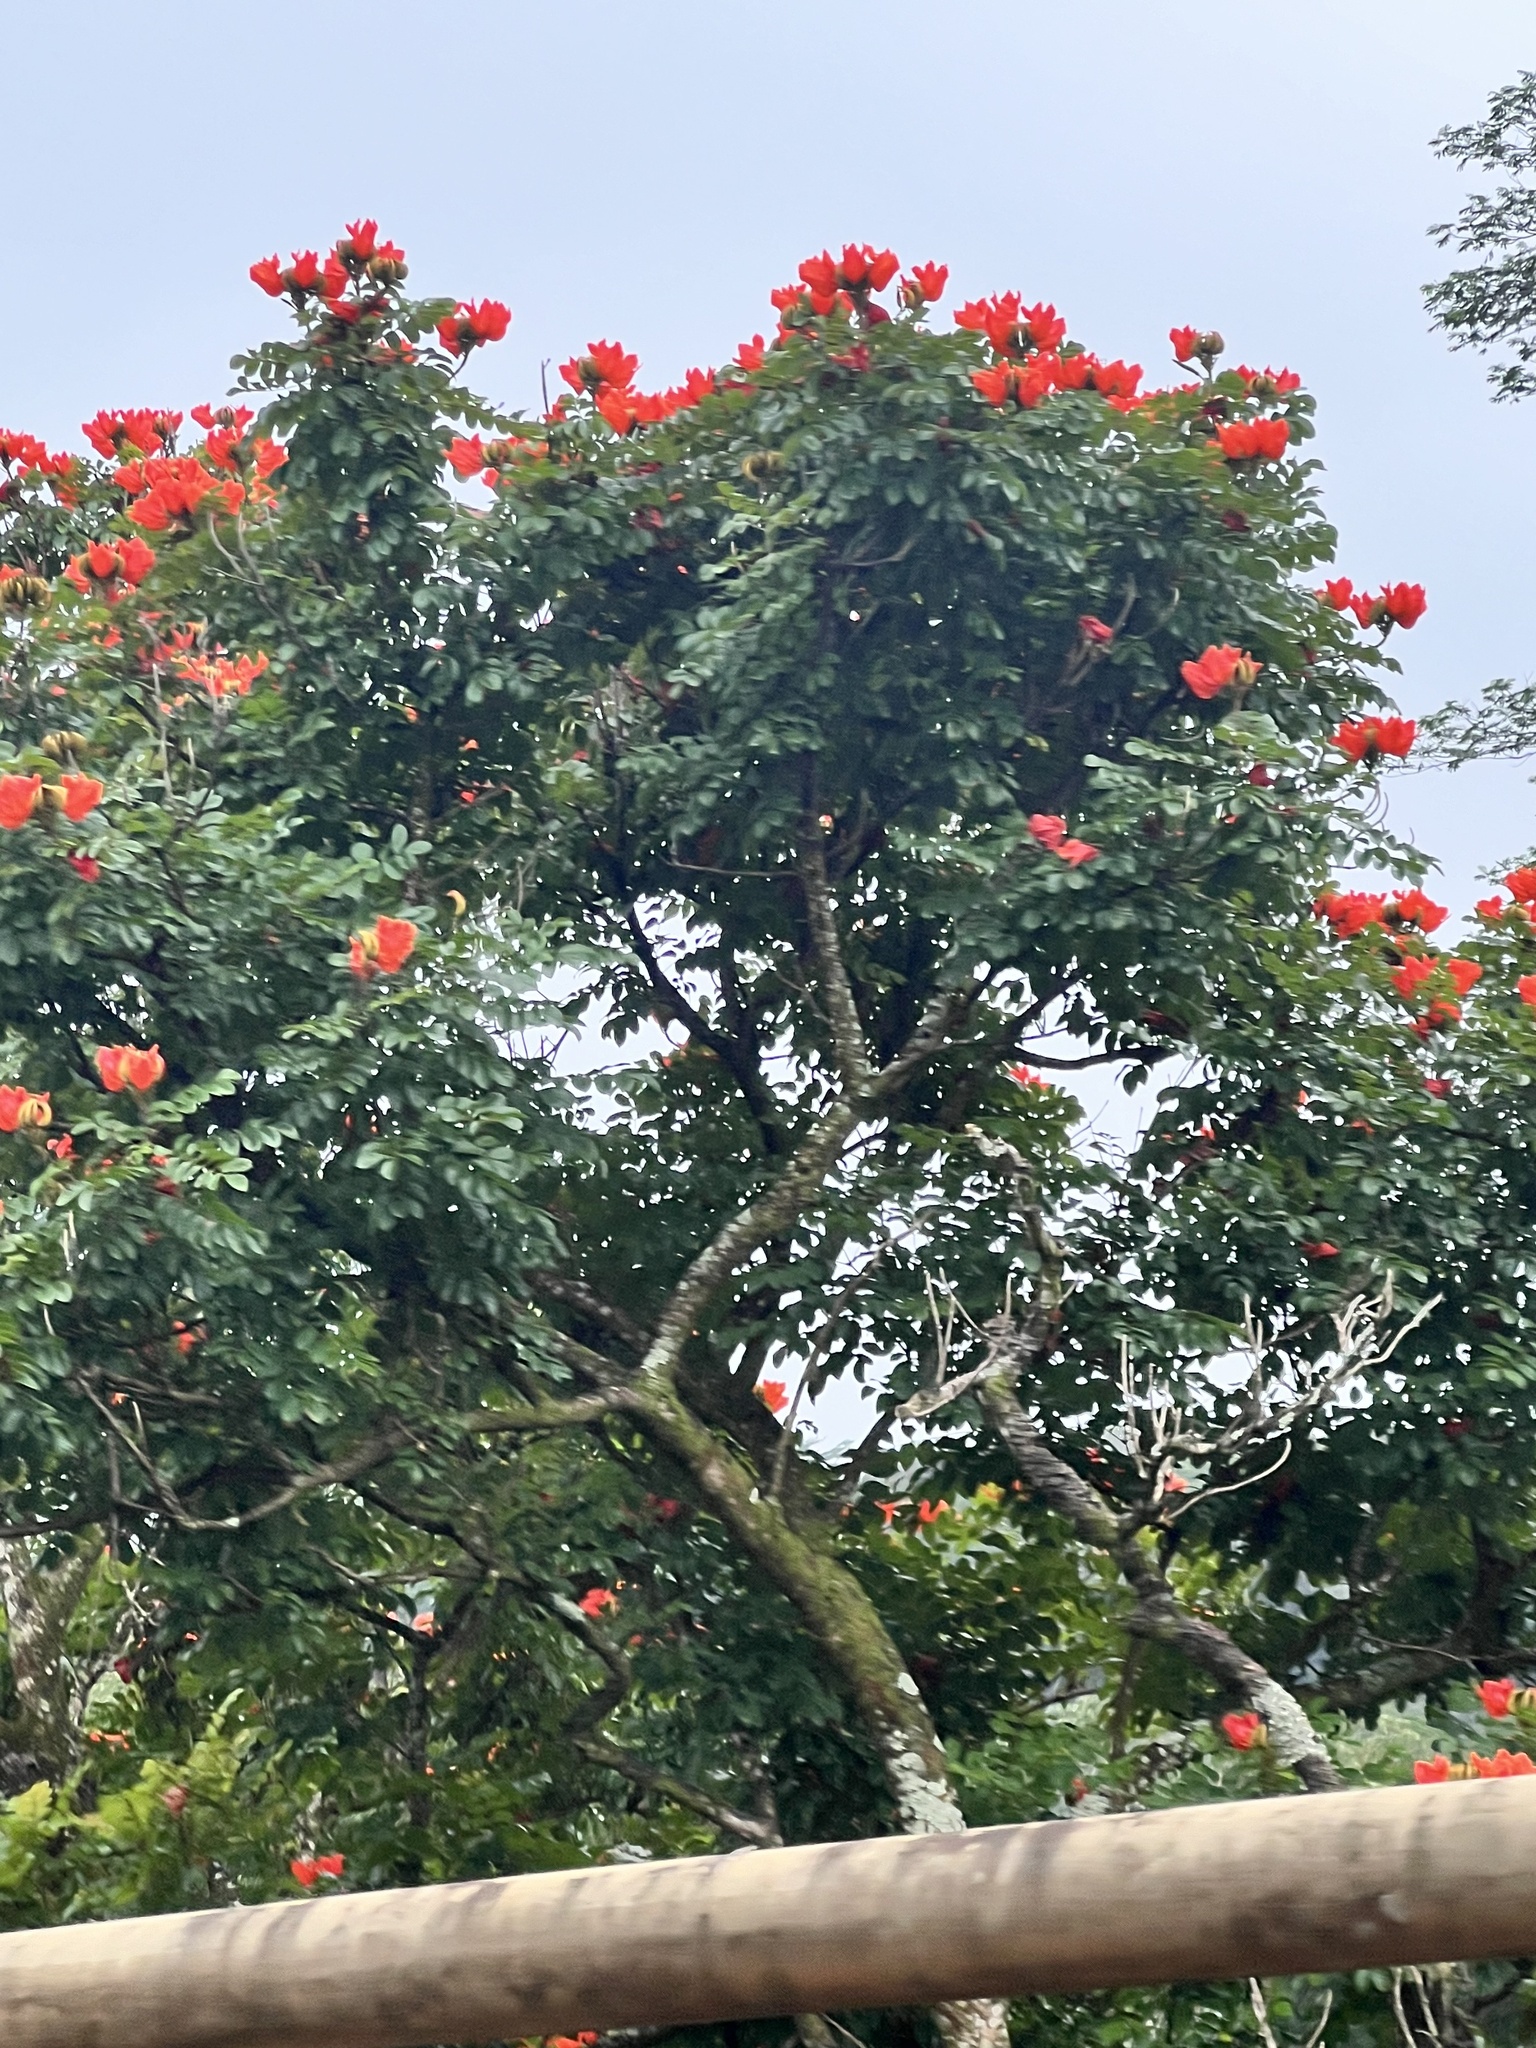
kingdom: Plantae
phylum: Tracheophyta
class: Magnoliopsida
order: Lamiales
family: Bignoniaceae
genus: Spathodea
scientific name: Spathodea campanulata
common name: African tuliptree
